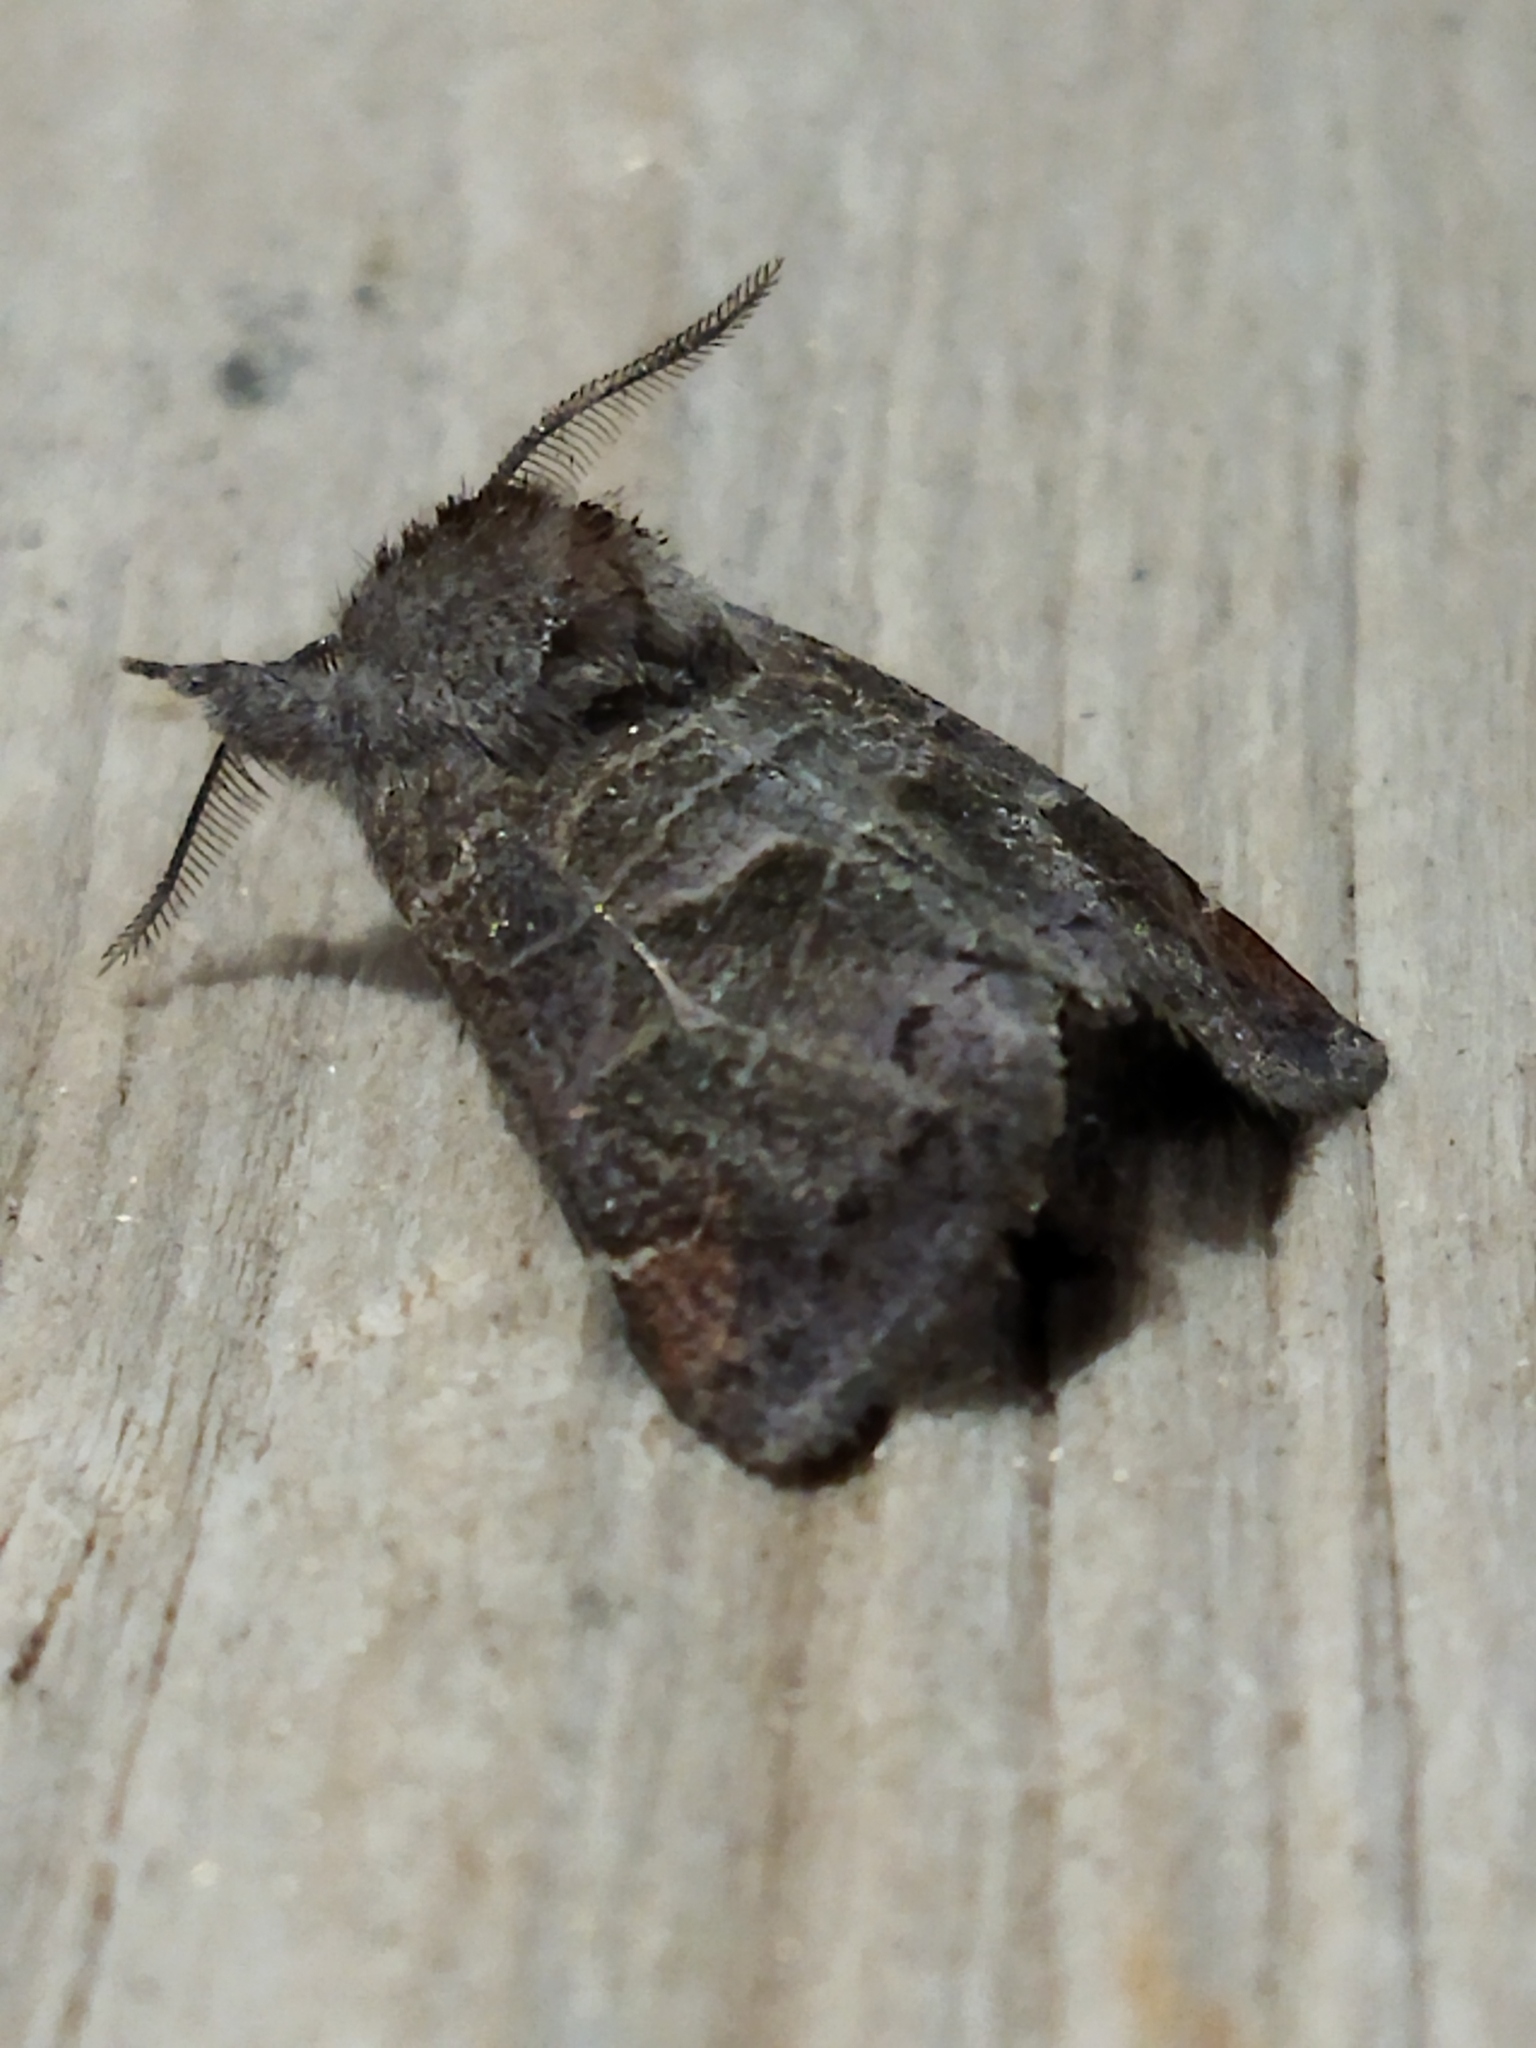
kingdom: Animalia
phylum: Arthropoda
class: Insecta
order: Lepidoptera
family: Notodontidae
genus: Clostera
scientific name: Clostera pigra
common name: Small chocolate-tip
